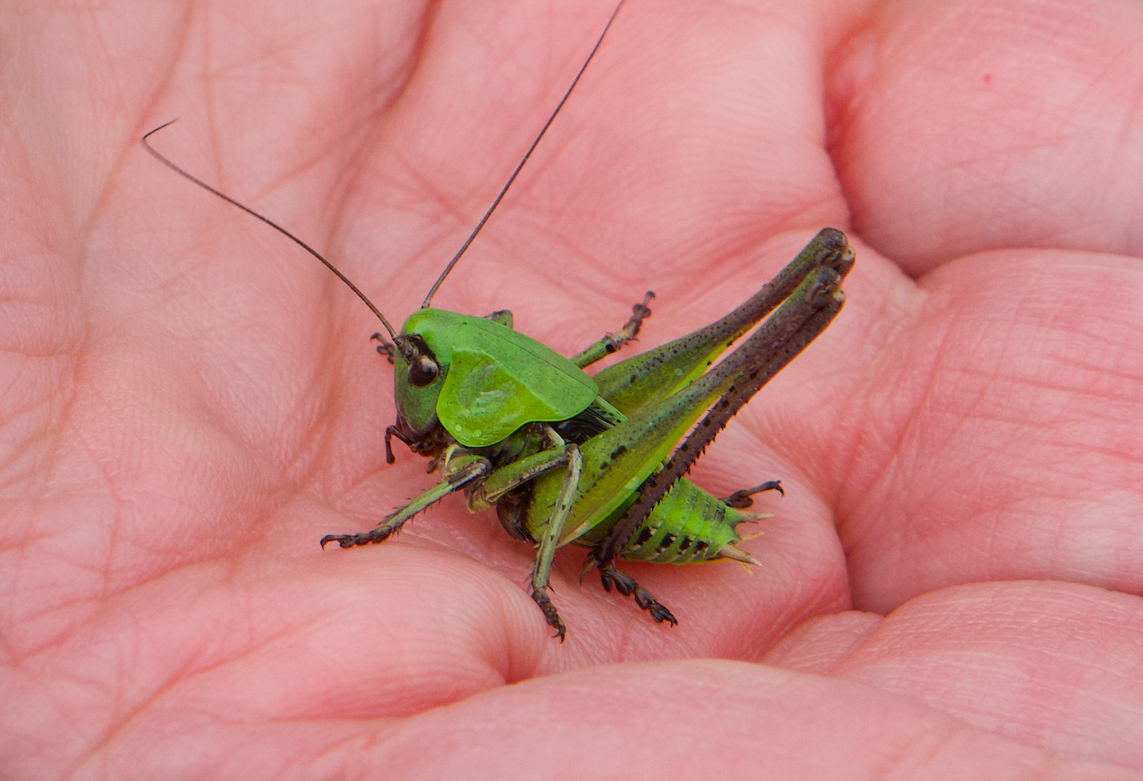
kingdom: Animalia
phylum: Arthropoda
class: Insecta
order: Orthoptera
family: Tettigoniidae
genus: Decticus
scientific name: Decticus verrucivorus
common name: Wart-biter
